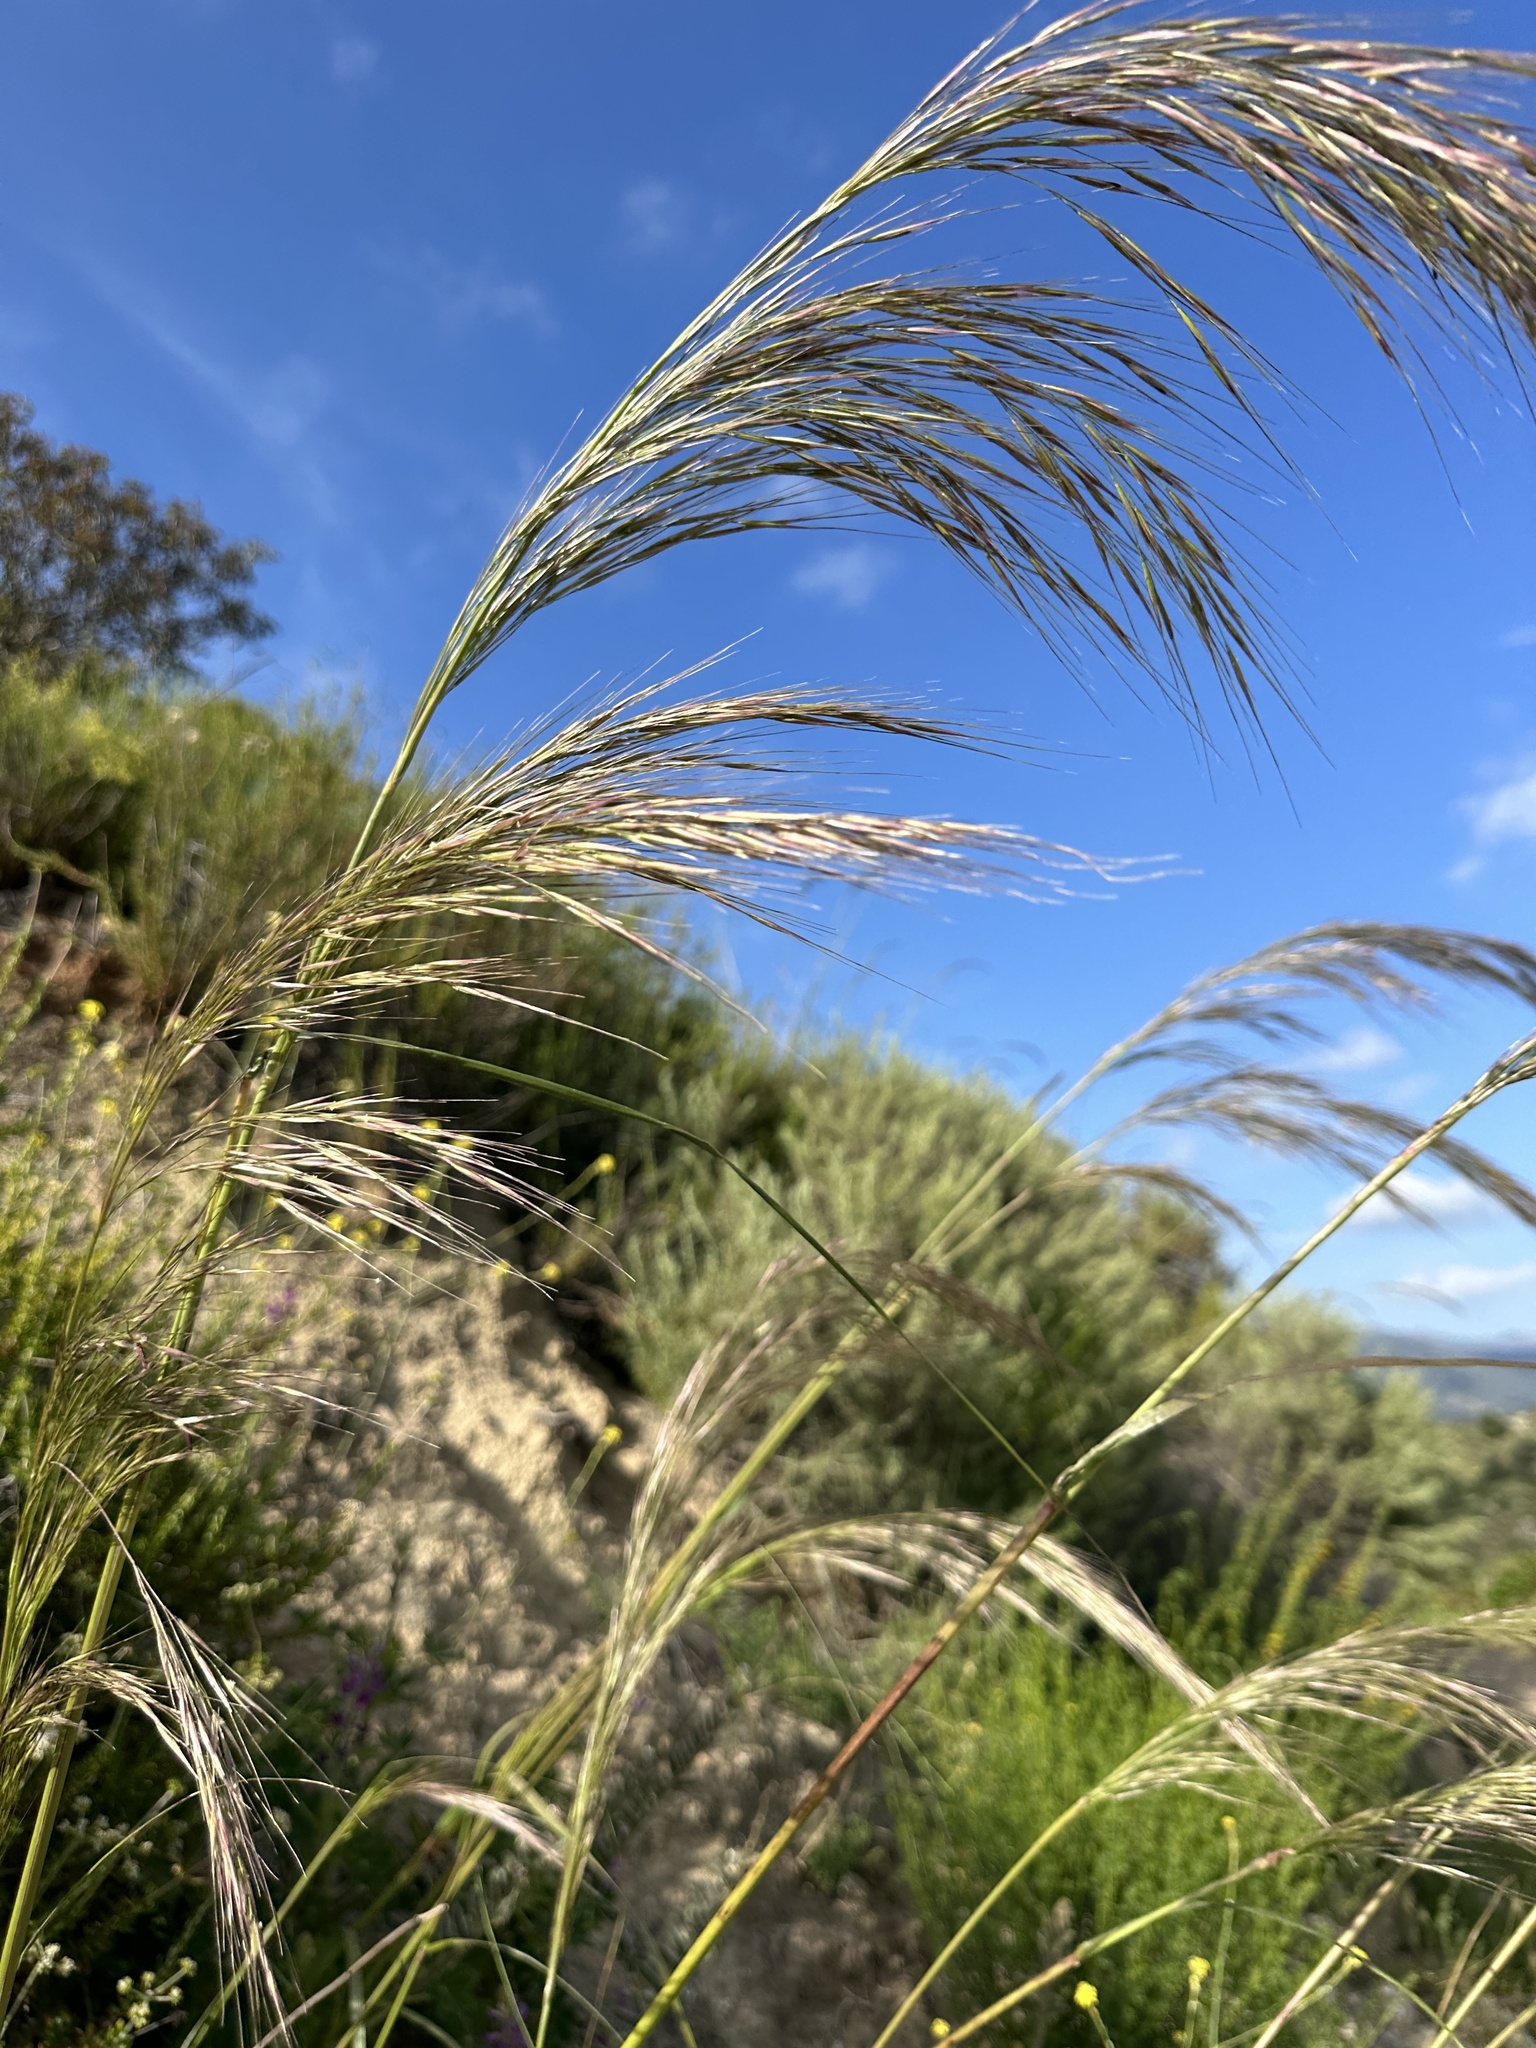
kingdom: Plantae
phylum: Tracheophyta
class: Liliopsida
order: Poales
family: Poaceae
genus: Eriocoma
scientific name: Eriocoma coronata
